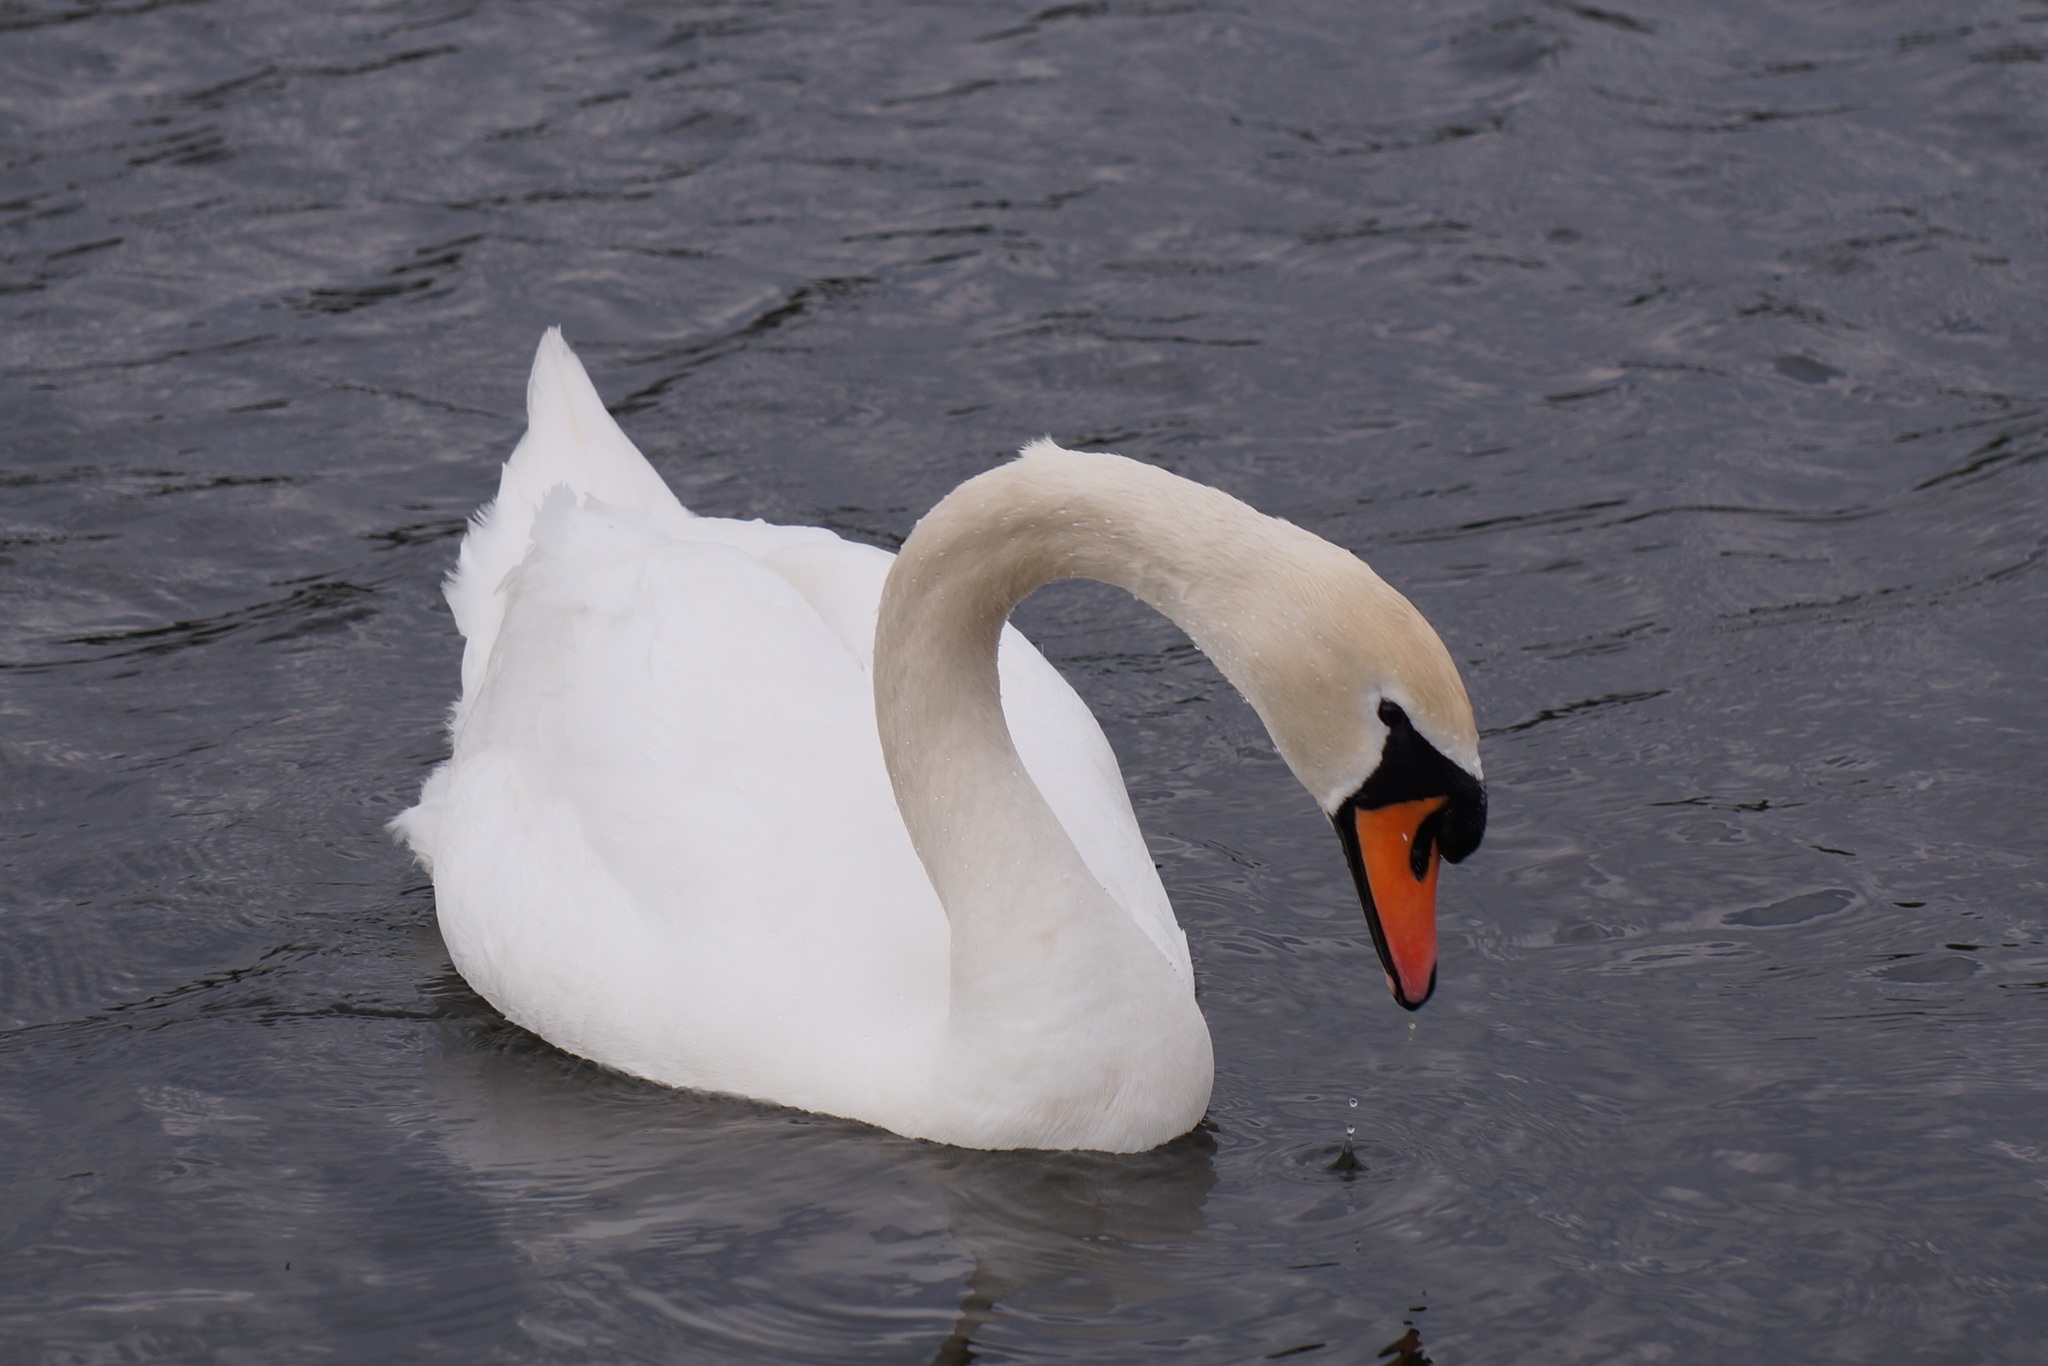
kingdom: Animalia
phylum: Chordata
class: Aves
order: Anseriformes
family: Anatidae
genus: Cygnus
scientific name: Cygnus olor
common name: Mute swan
